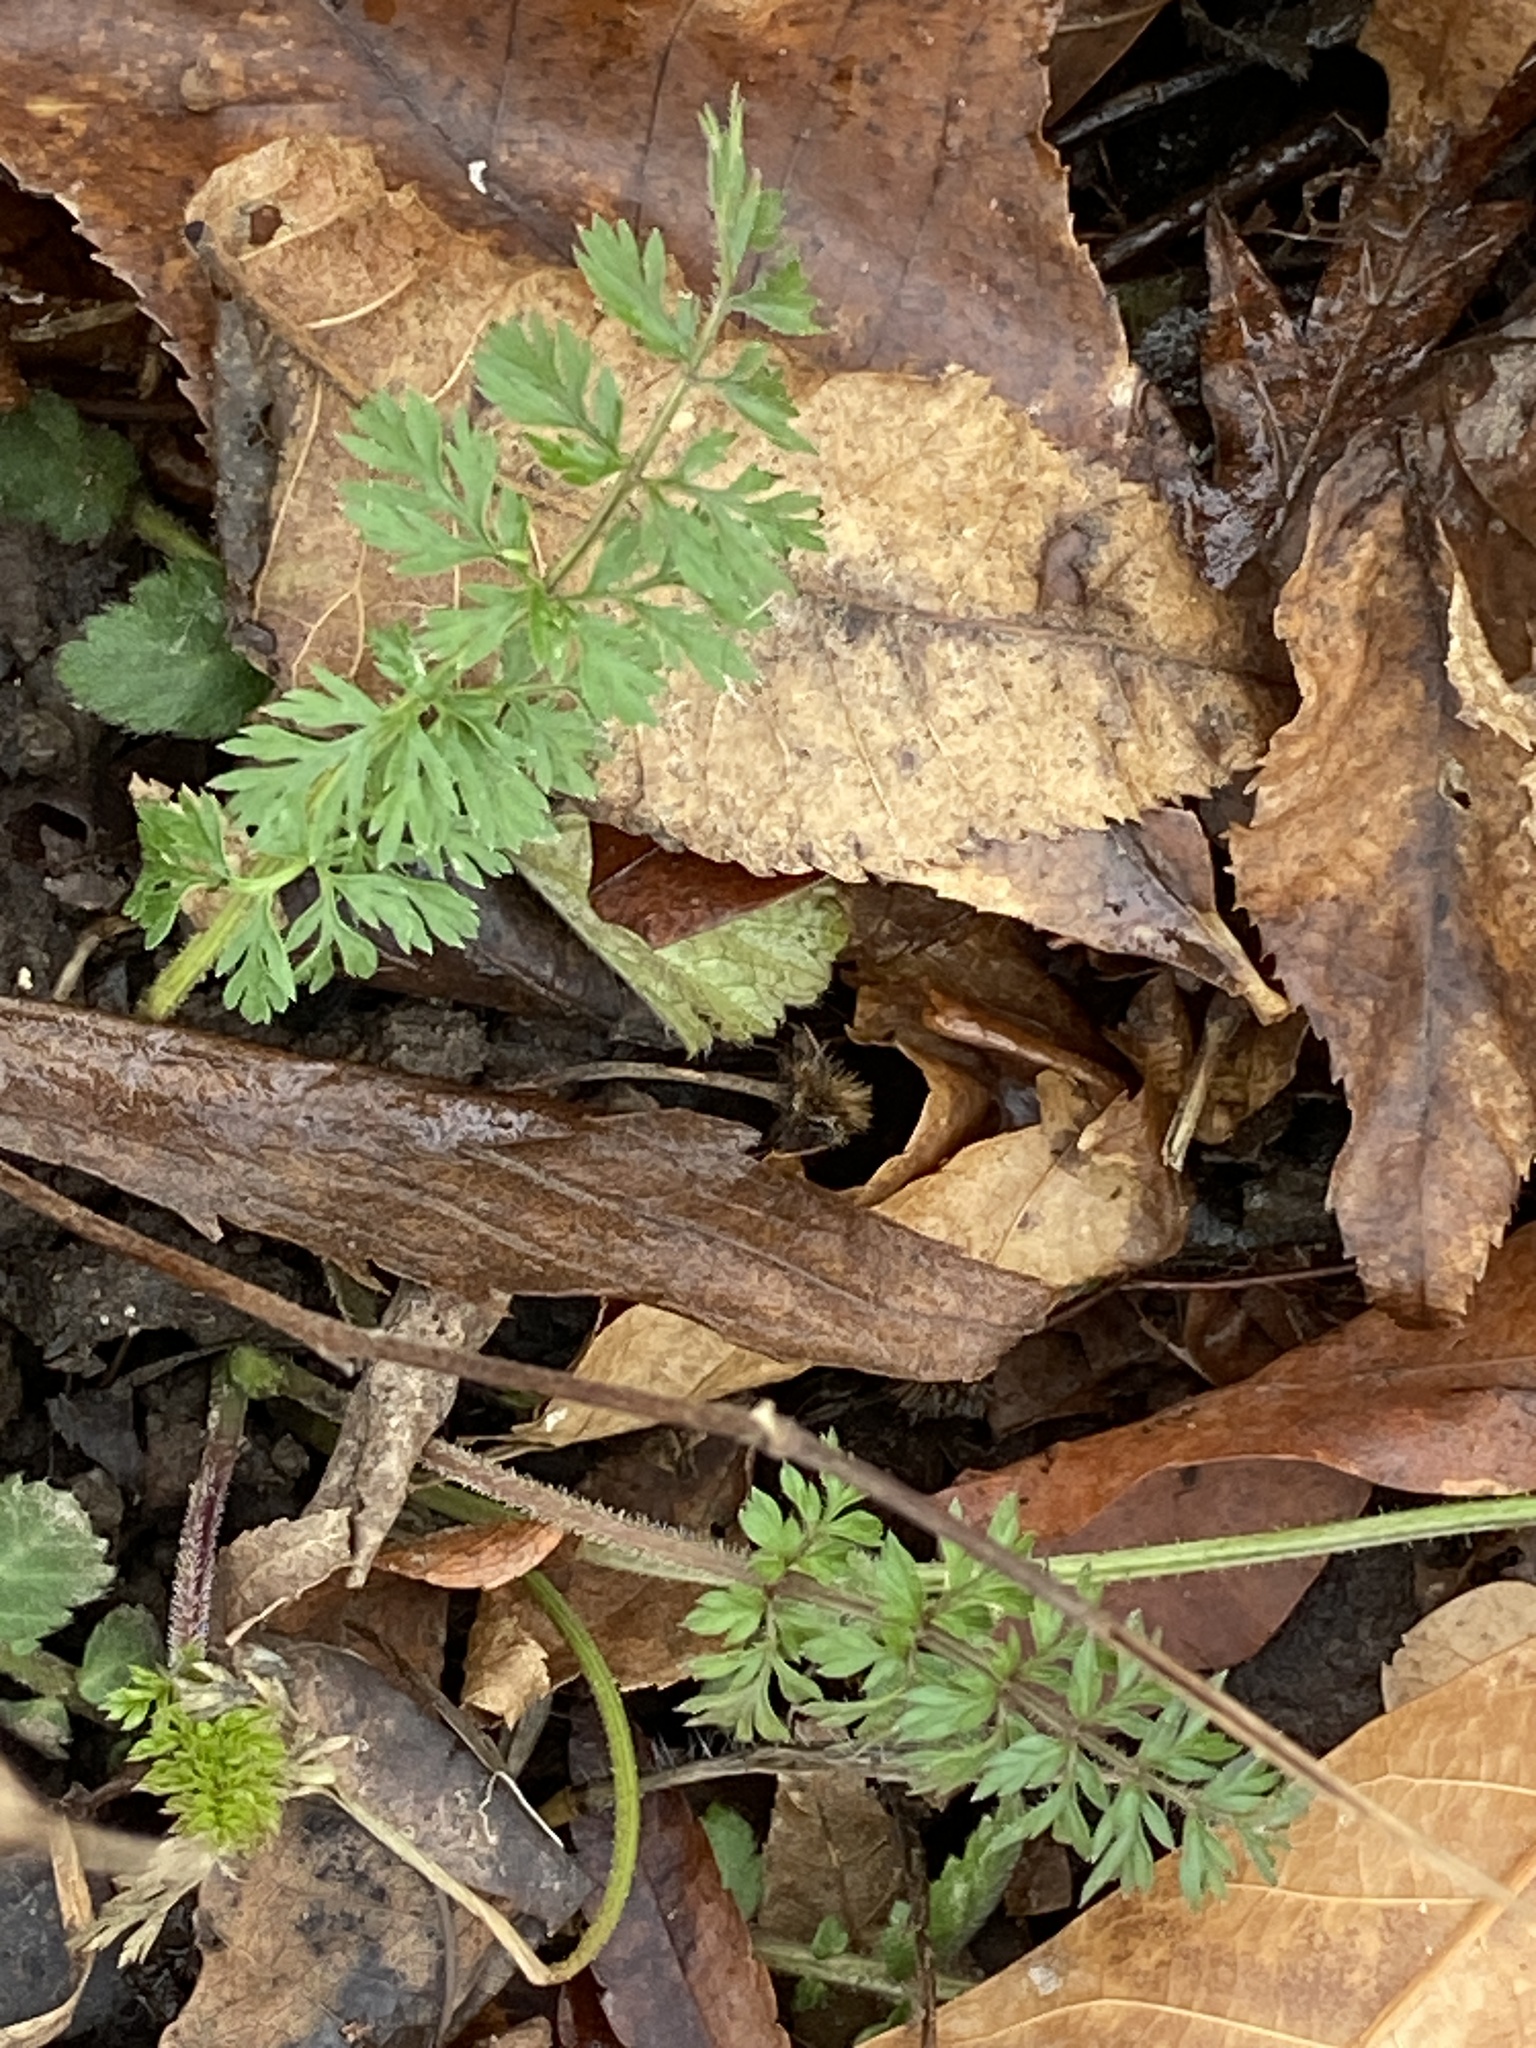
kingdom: Plantae
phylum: Tracheophyta
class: Magnoliopsida
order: Apiales
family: Apiaceae
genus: Daucus
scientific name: Daucus carota
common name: Wild carrot
